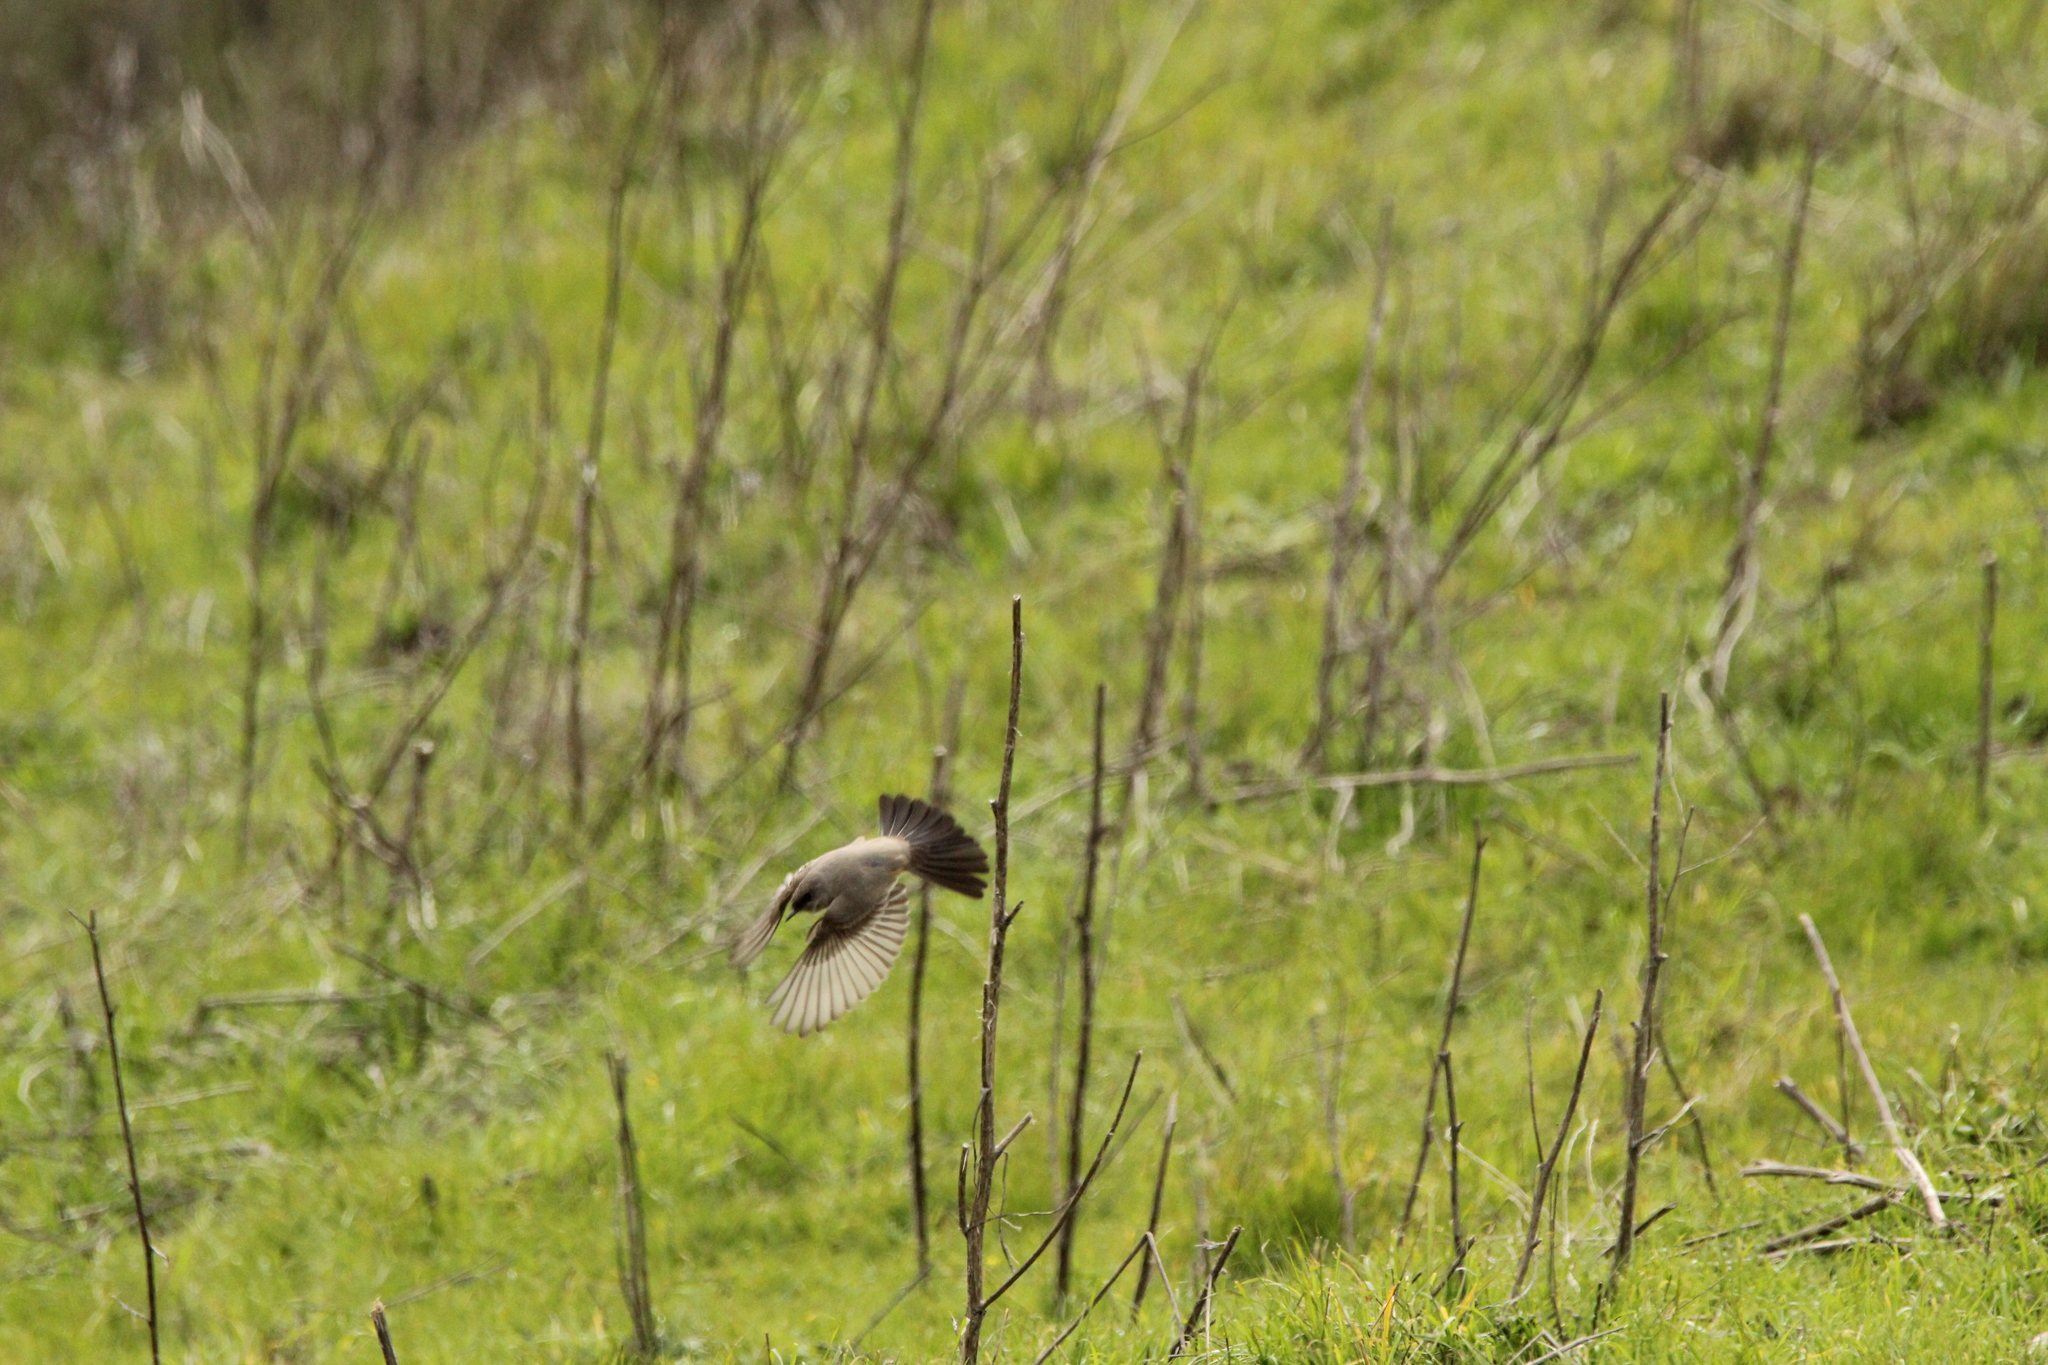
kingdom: Animalia
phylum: Chordata
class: Aves
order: Passeriformes
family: Tyrannidae
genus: Sayornis
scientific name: Sayornis saya
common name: Say's phoebe
